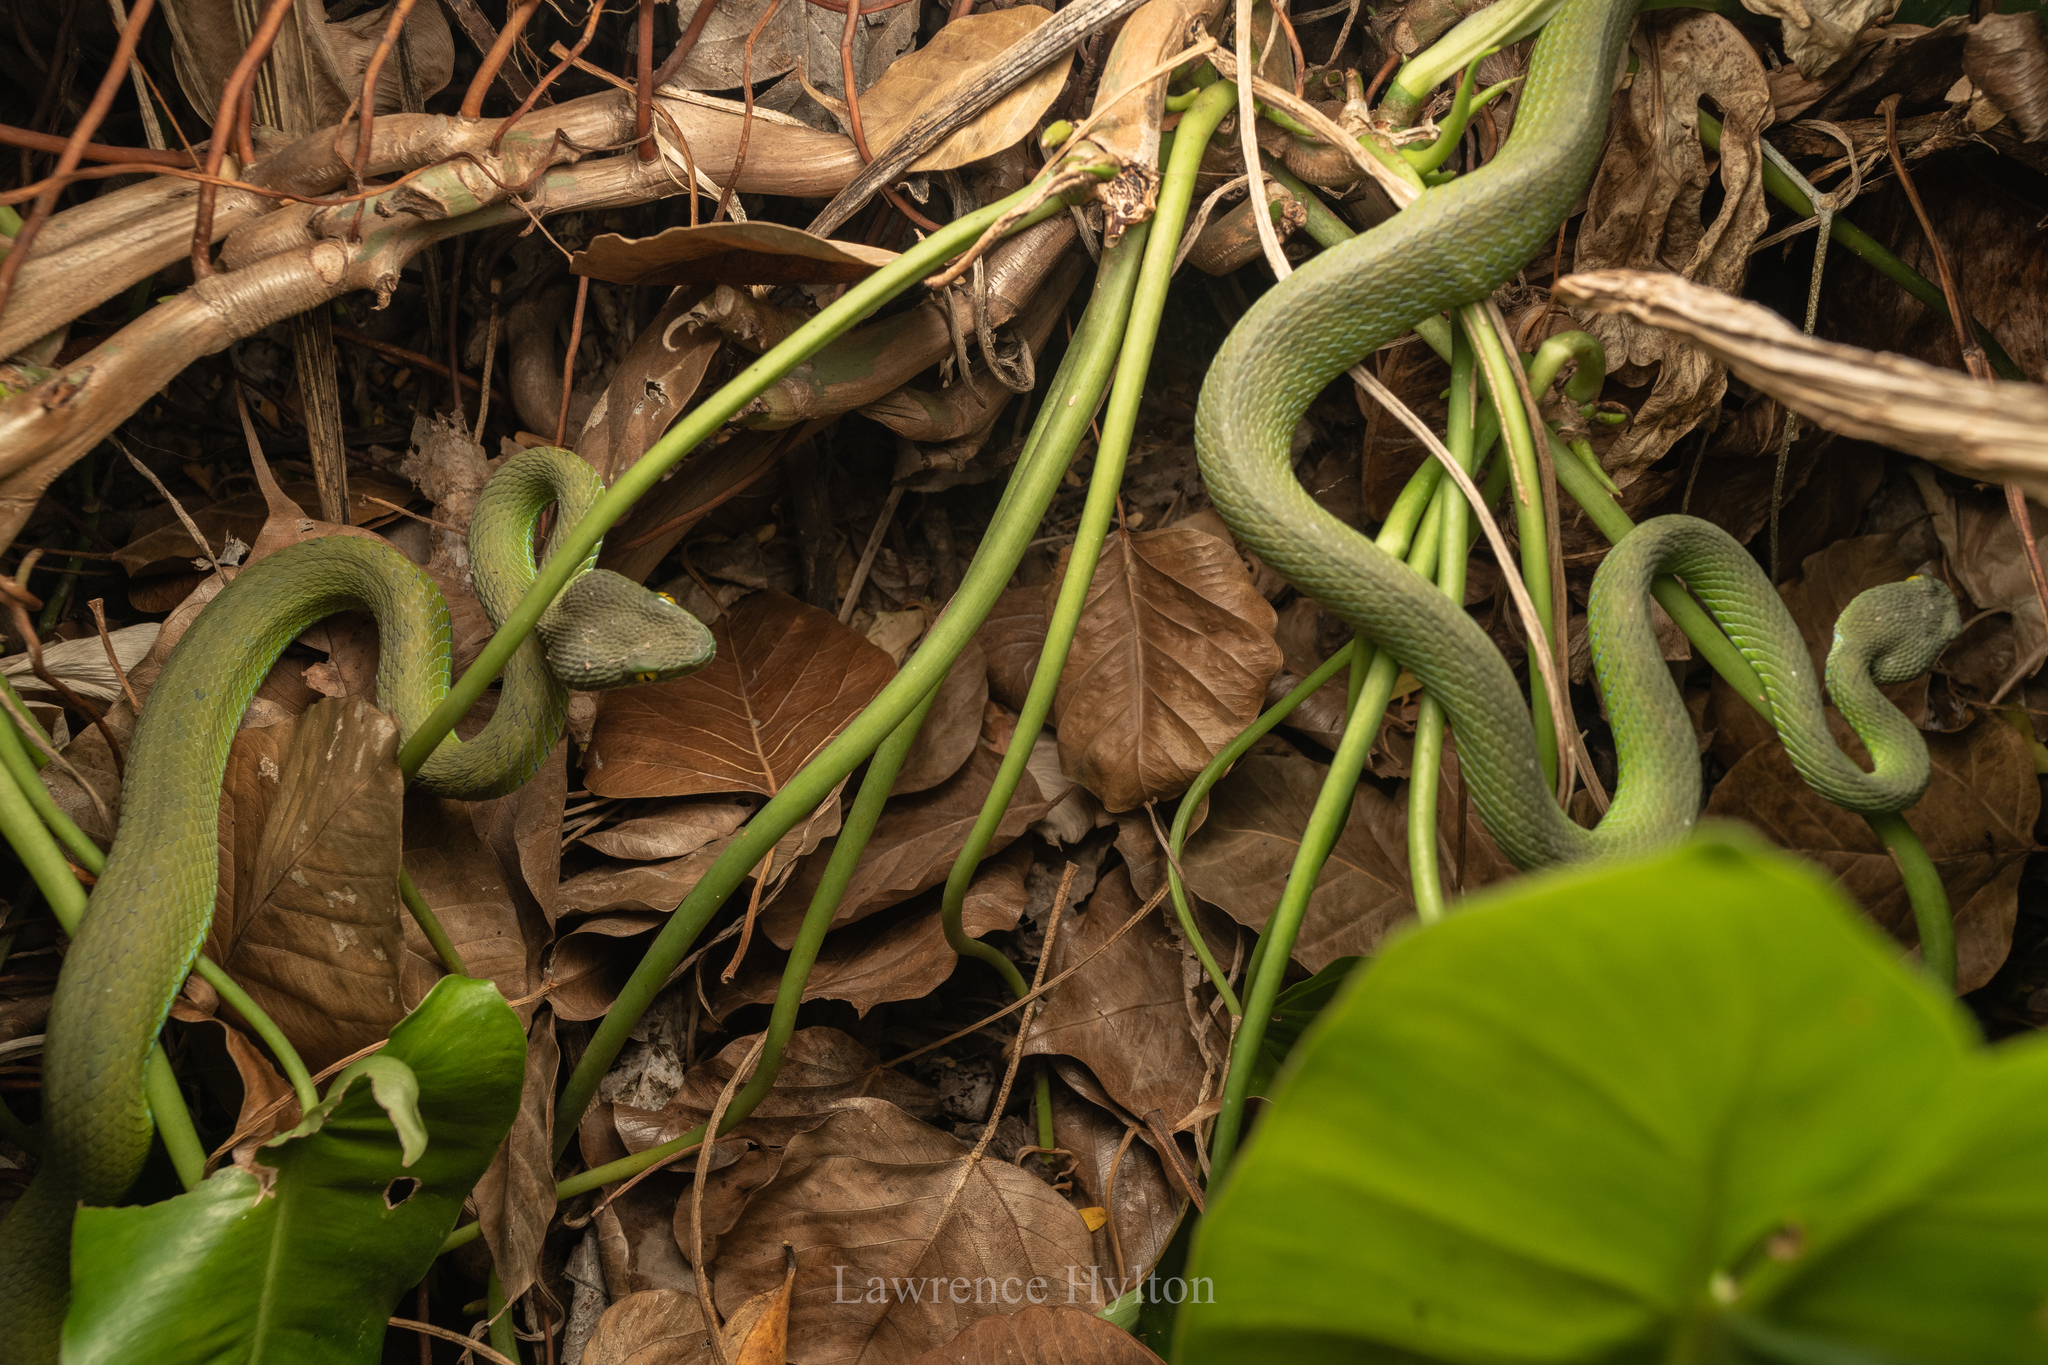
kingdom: Animalia
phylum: Chordata
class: Squamata
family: Viperidae
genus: Trimeresurus
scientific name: Trimeresurus macrops
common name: Kramer's pit viper
